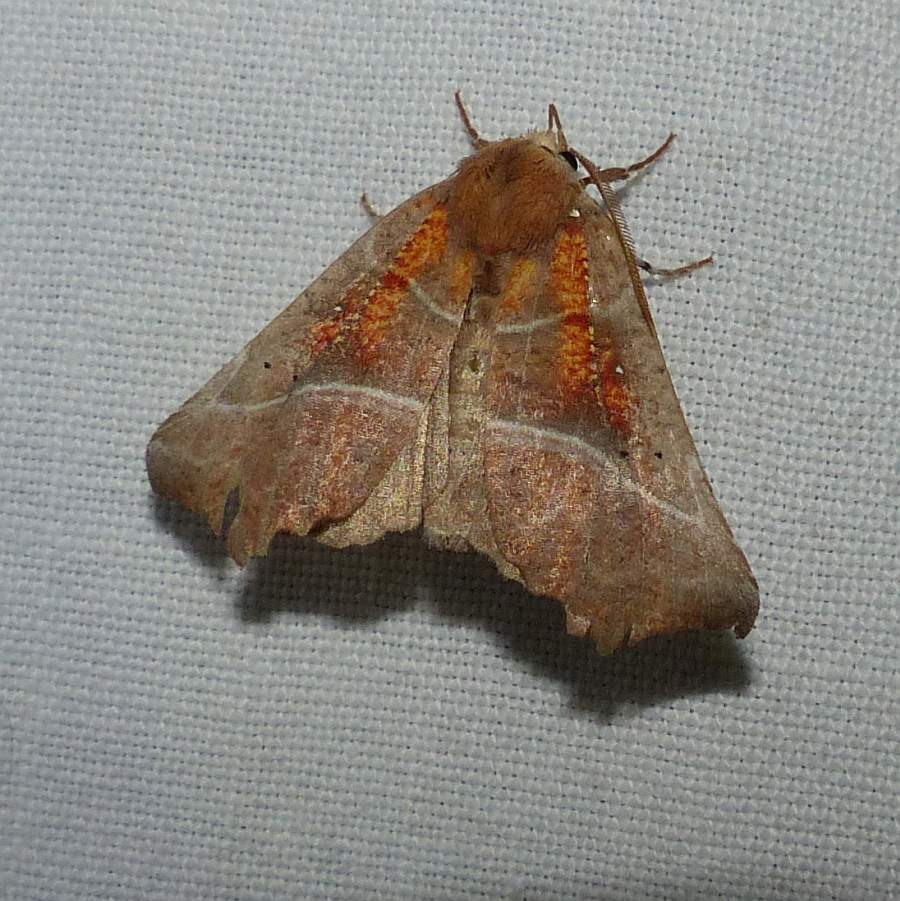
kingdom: Animalia
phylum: Arthropoda
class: Insecta
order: Lepidoptera
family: Erebidae
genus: Scoliopteryx
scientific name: Scoliopteryx libatrix
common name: Herald
